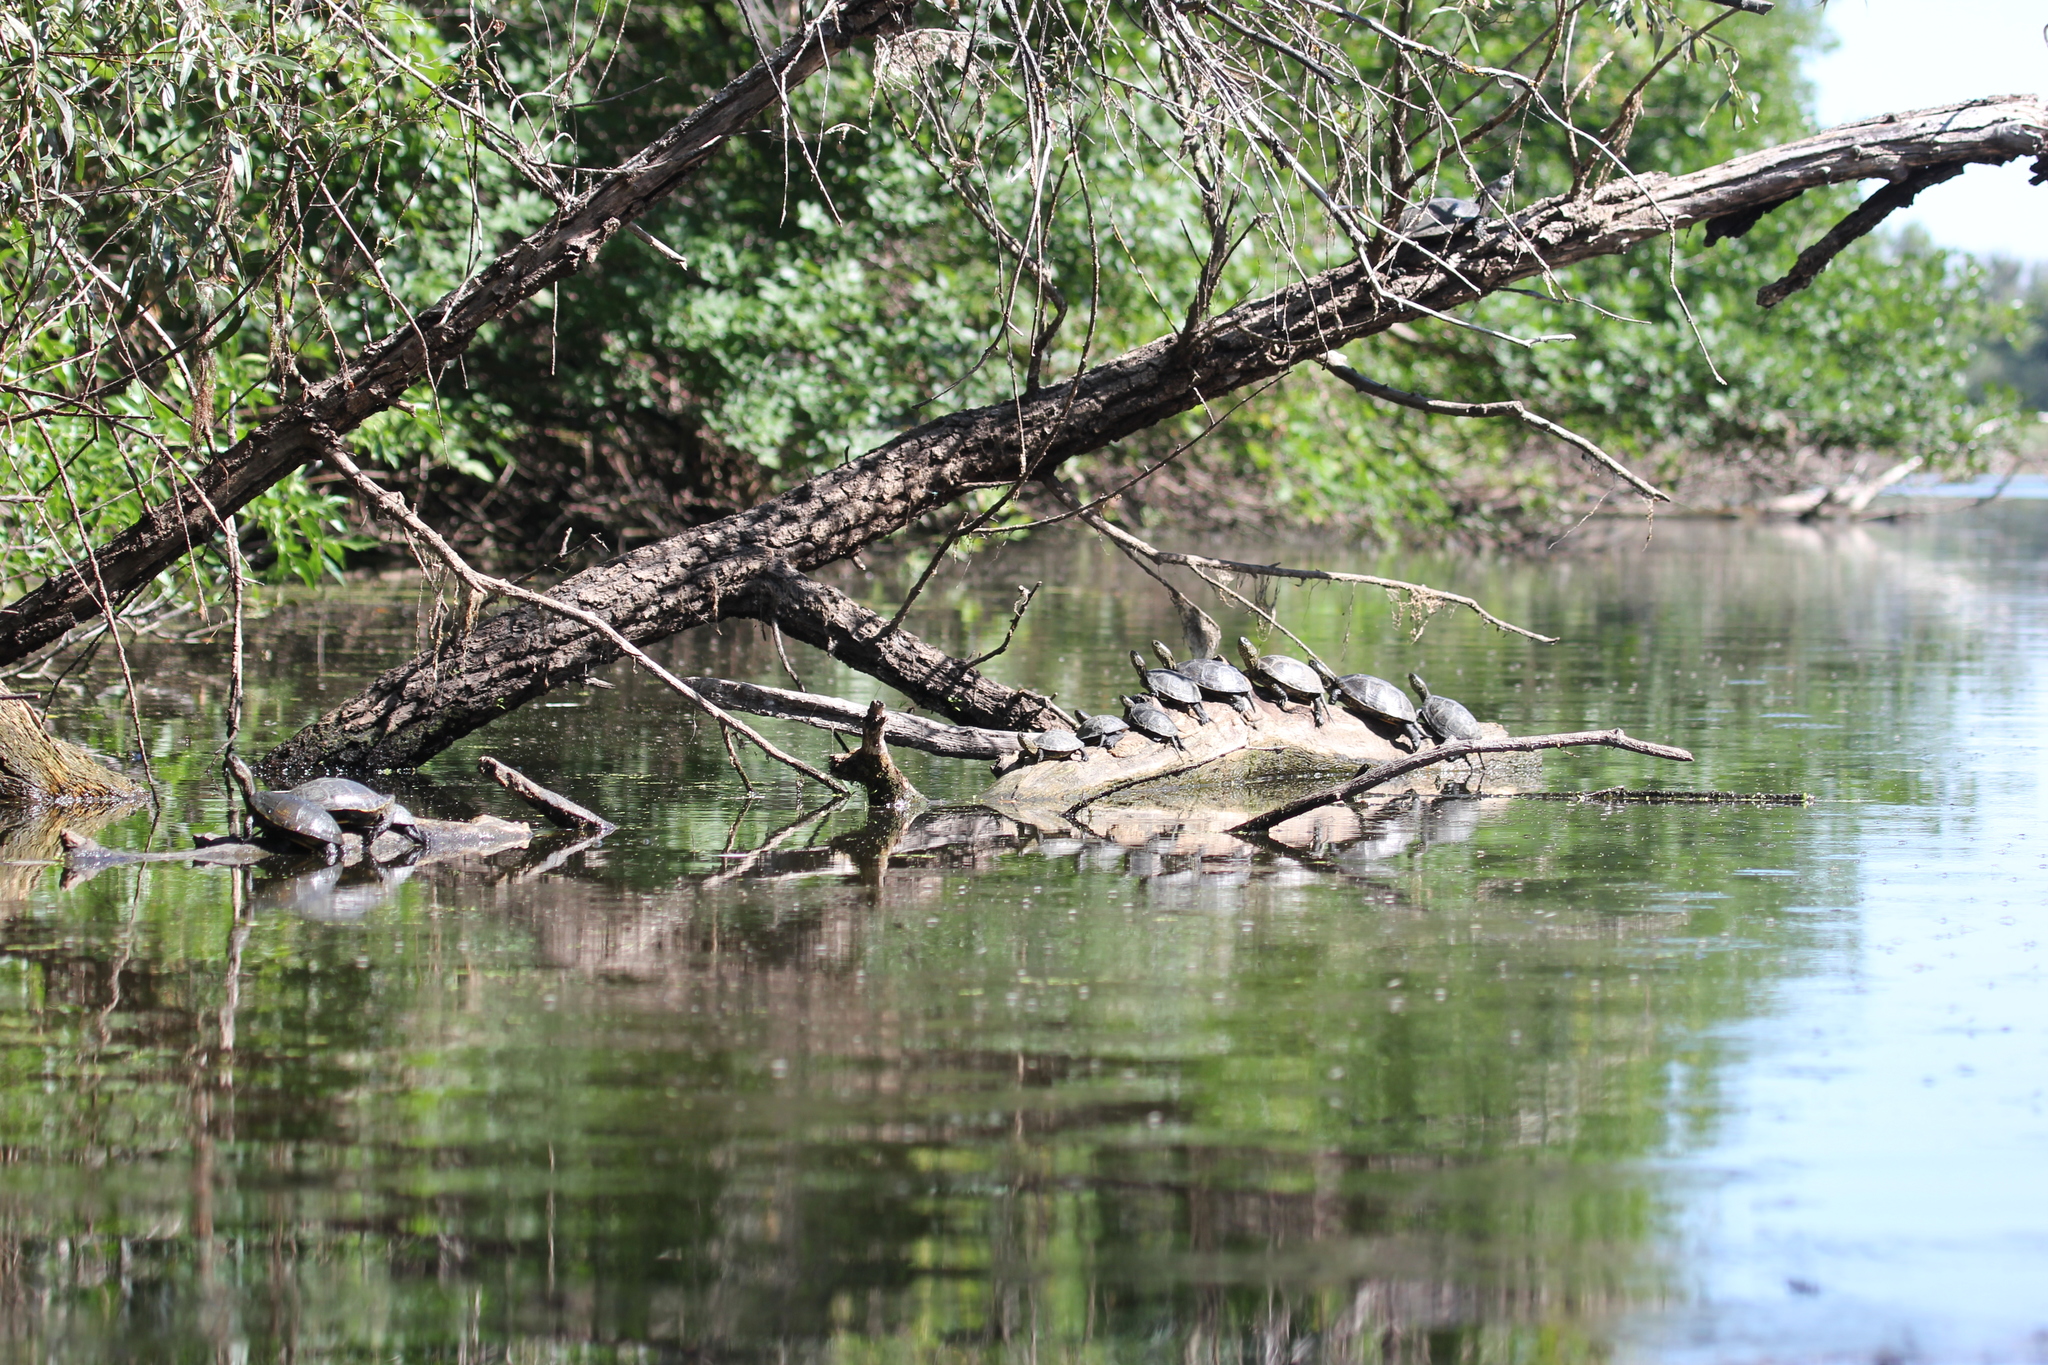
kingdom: Animalia
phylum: Chordata
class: Testudines
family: Emydidae
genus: Emys
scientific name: Emys orbicularis
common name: European pond turtle
